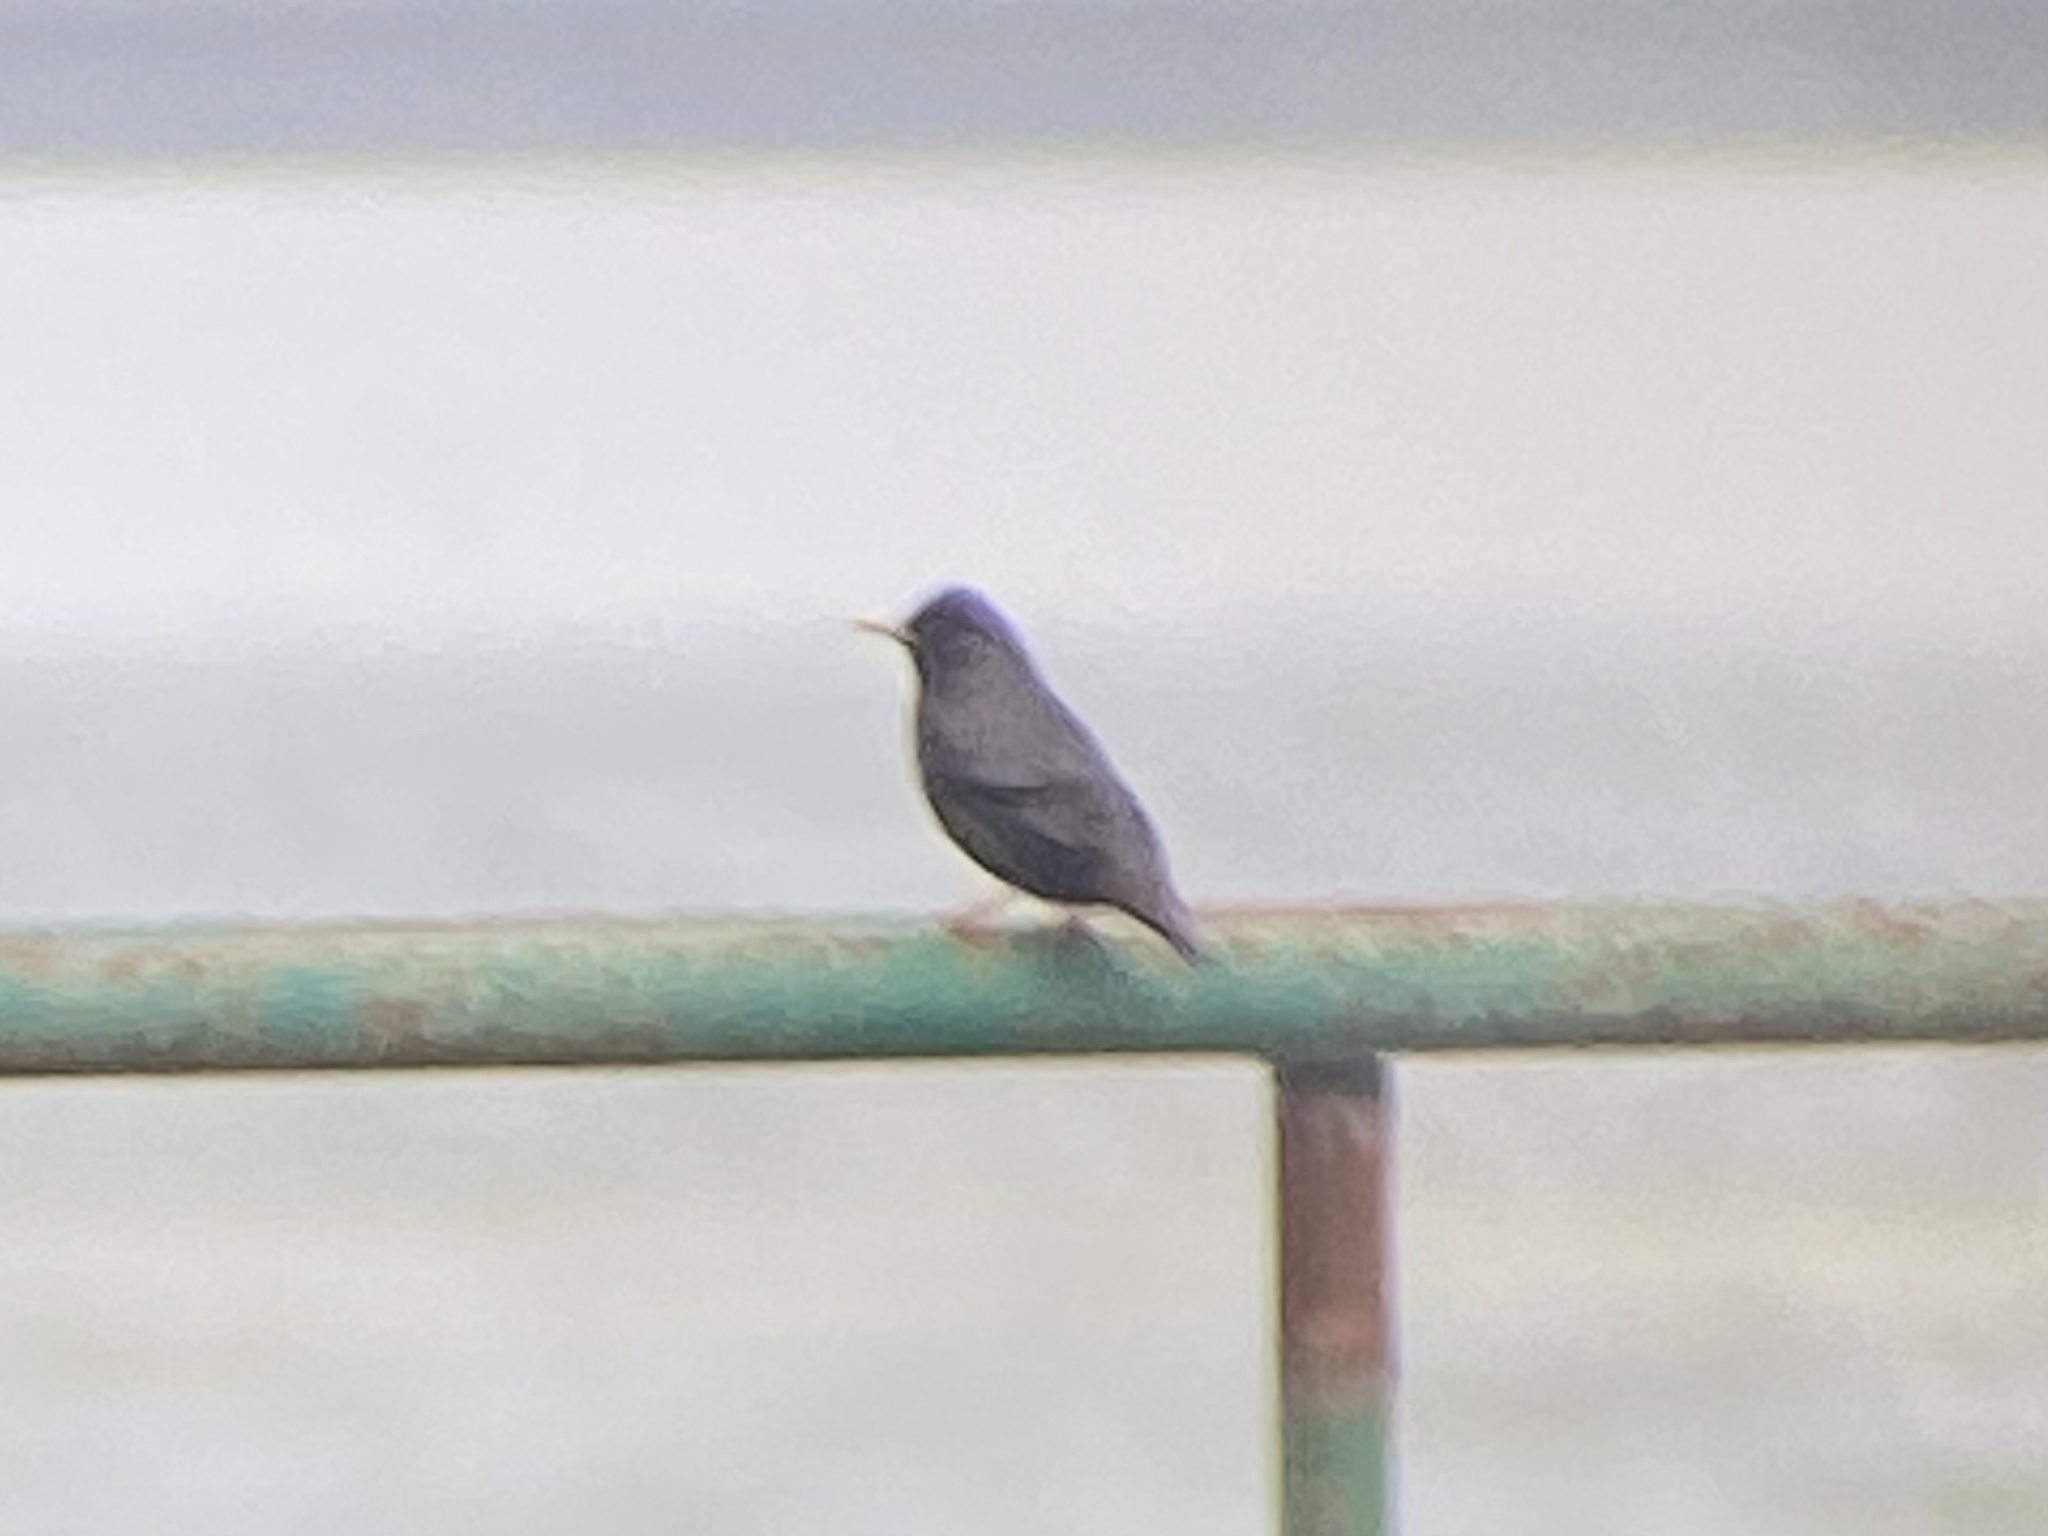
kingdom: Animalia
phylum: Chordata
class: Aves
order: Passeriformes
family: Sturnidae
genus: Sturnus
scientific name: Sturnus unicolor
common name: Spotless starling
